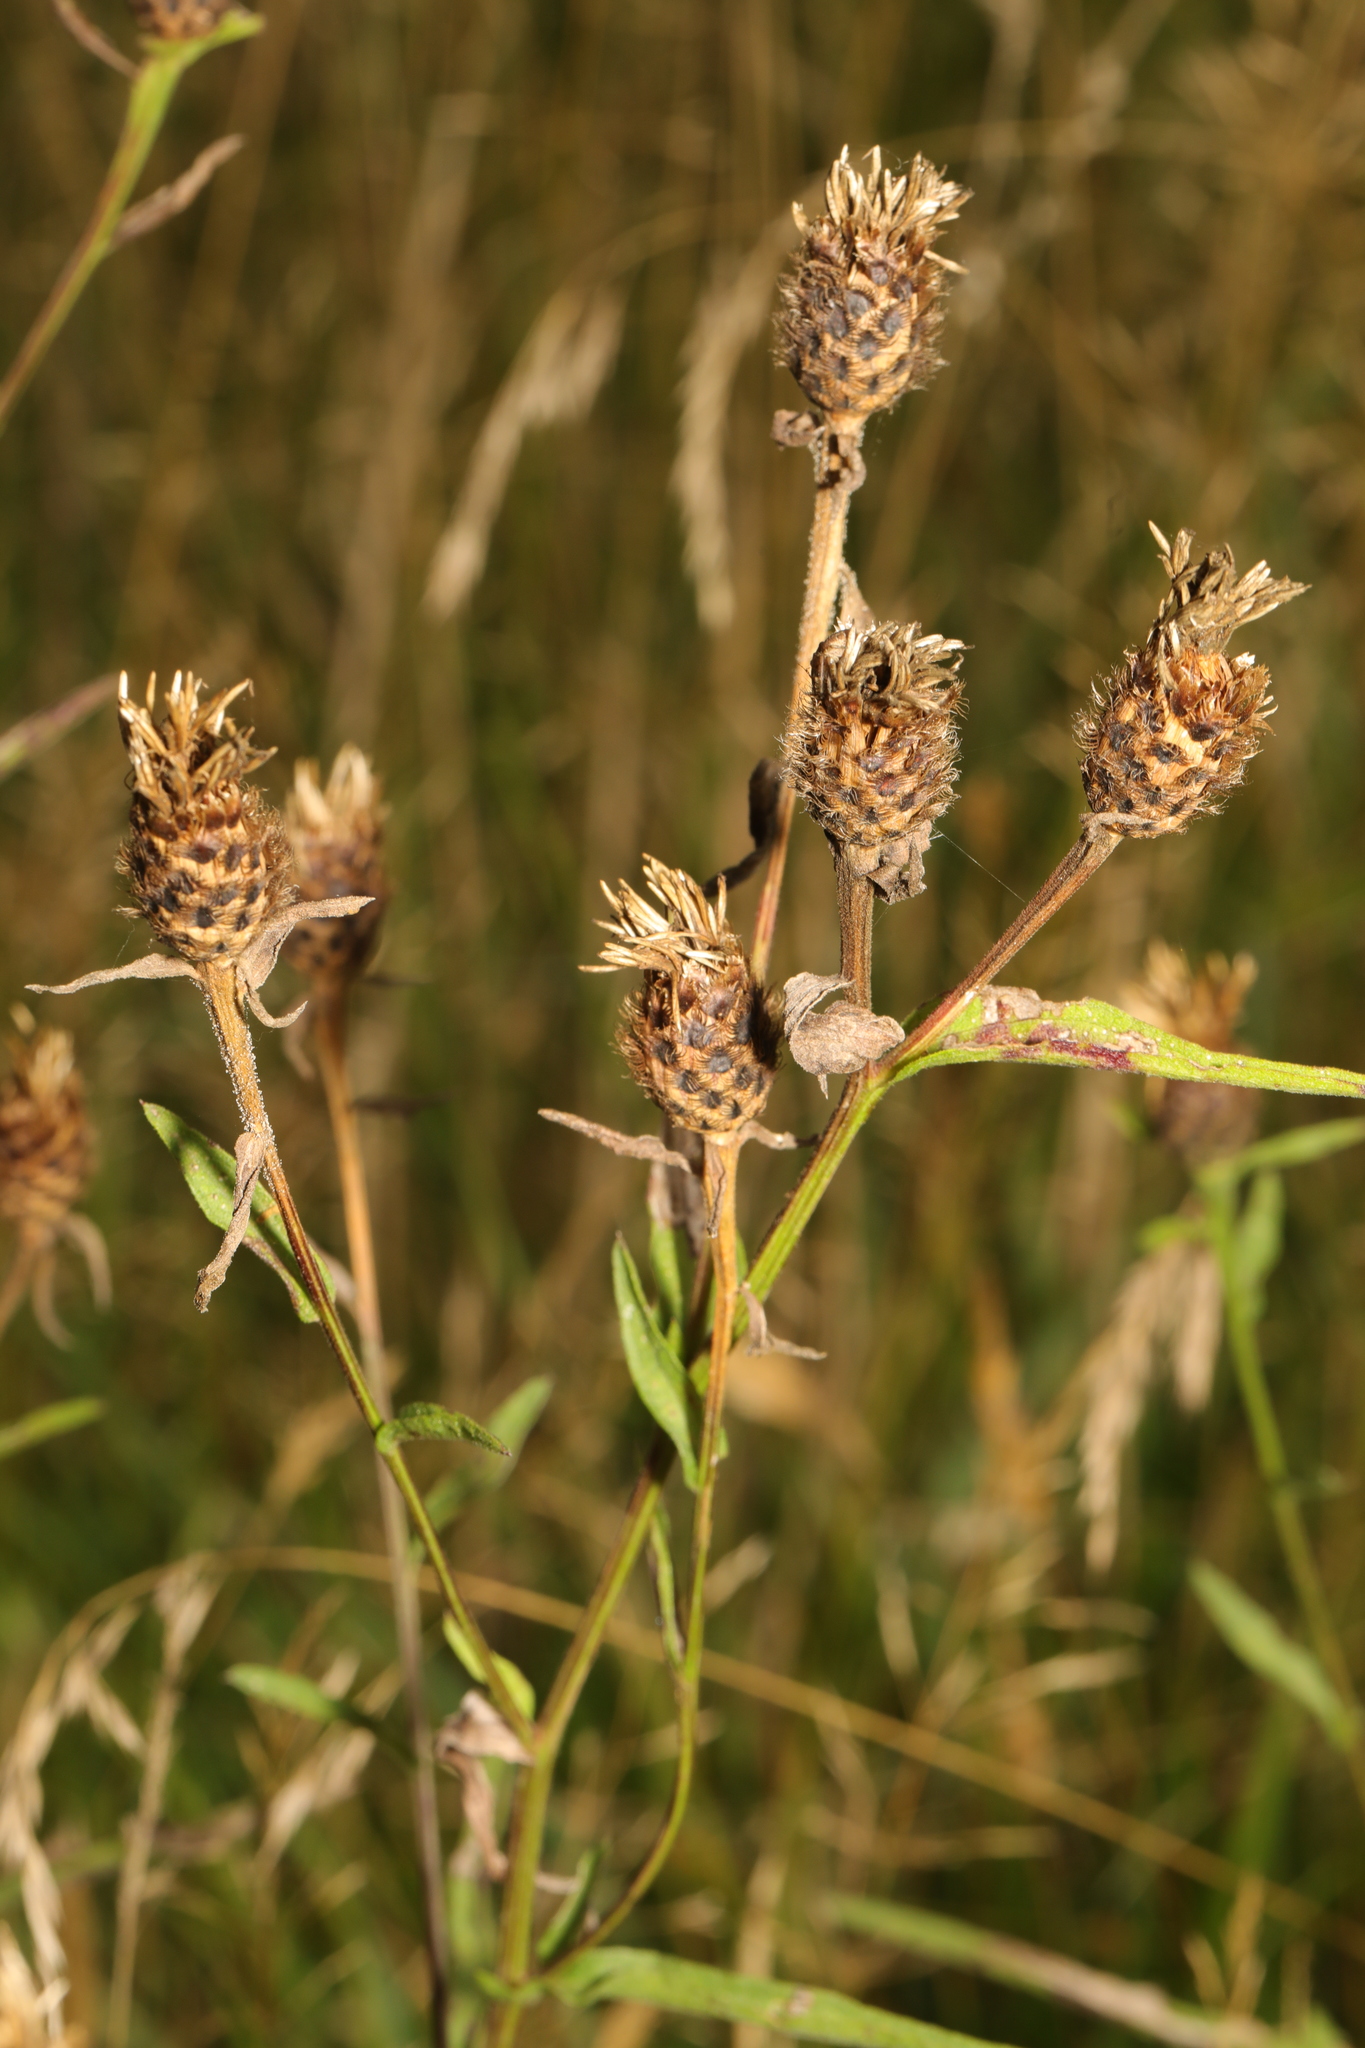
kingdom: Plantae
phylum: Tracheophyta
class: Magnoliopsida
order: Asterales
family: Asteraceae
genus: Centaurea
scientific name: Centaurea nigra
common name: Lesser knapweed
